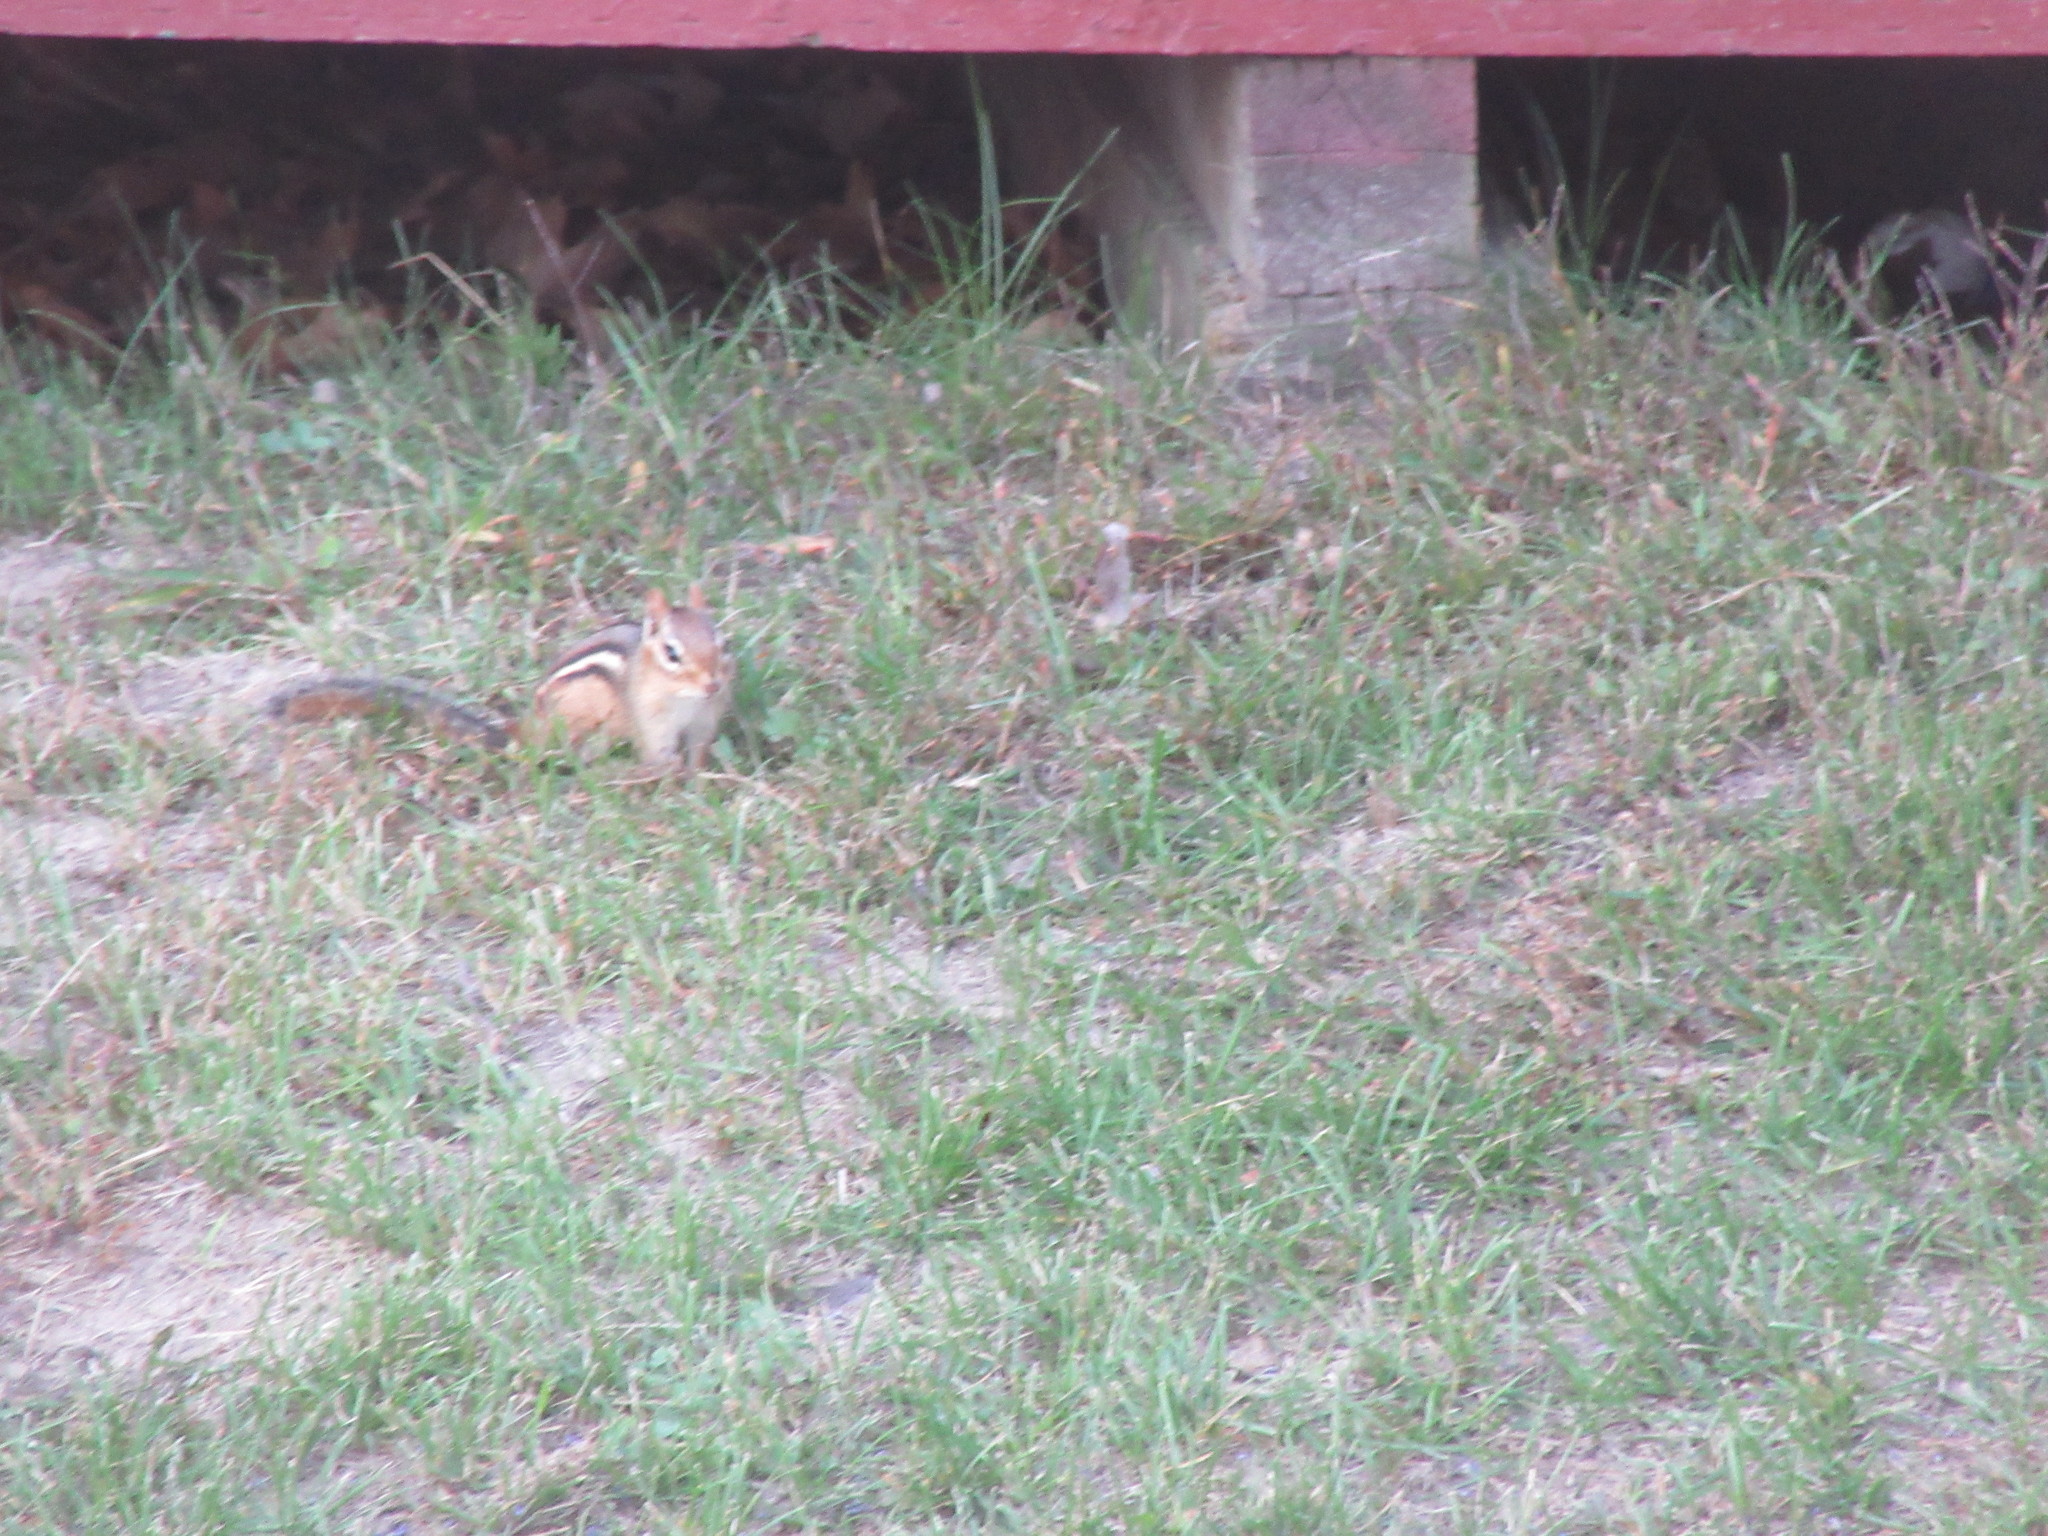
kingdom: Animalia
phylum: Chordata
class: Mammalia
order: Rodentia
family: Sciuridae
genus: Tamias
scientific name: Tamias striatus
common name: Eastern chipmunk
